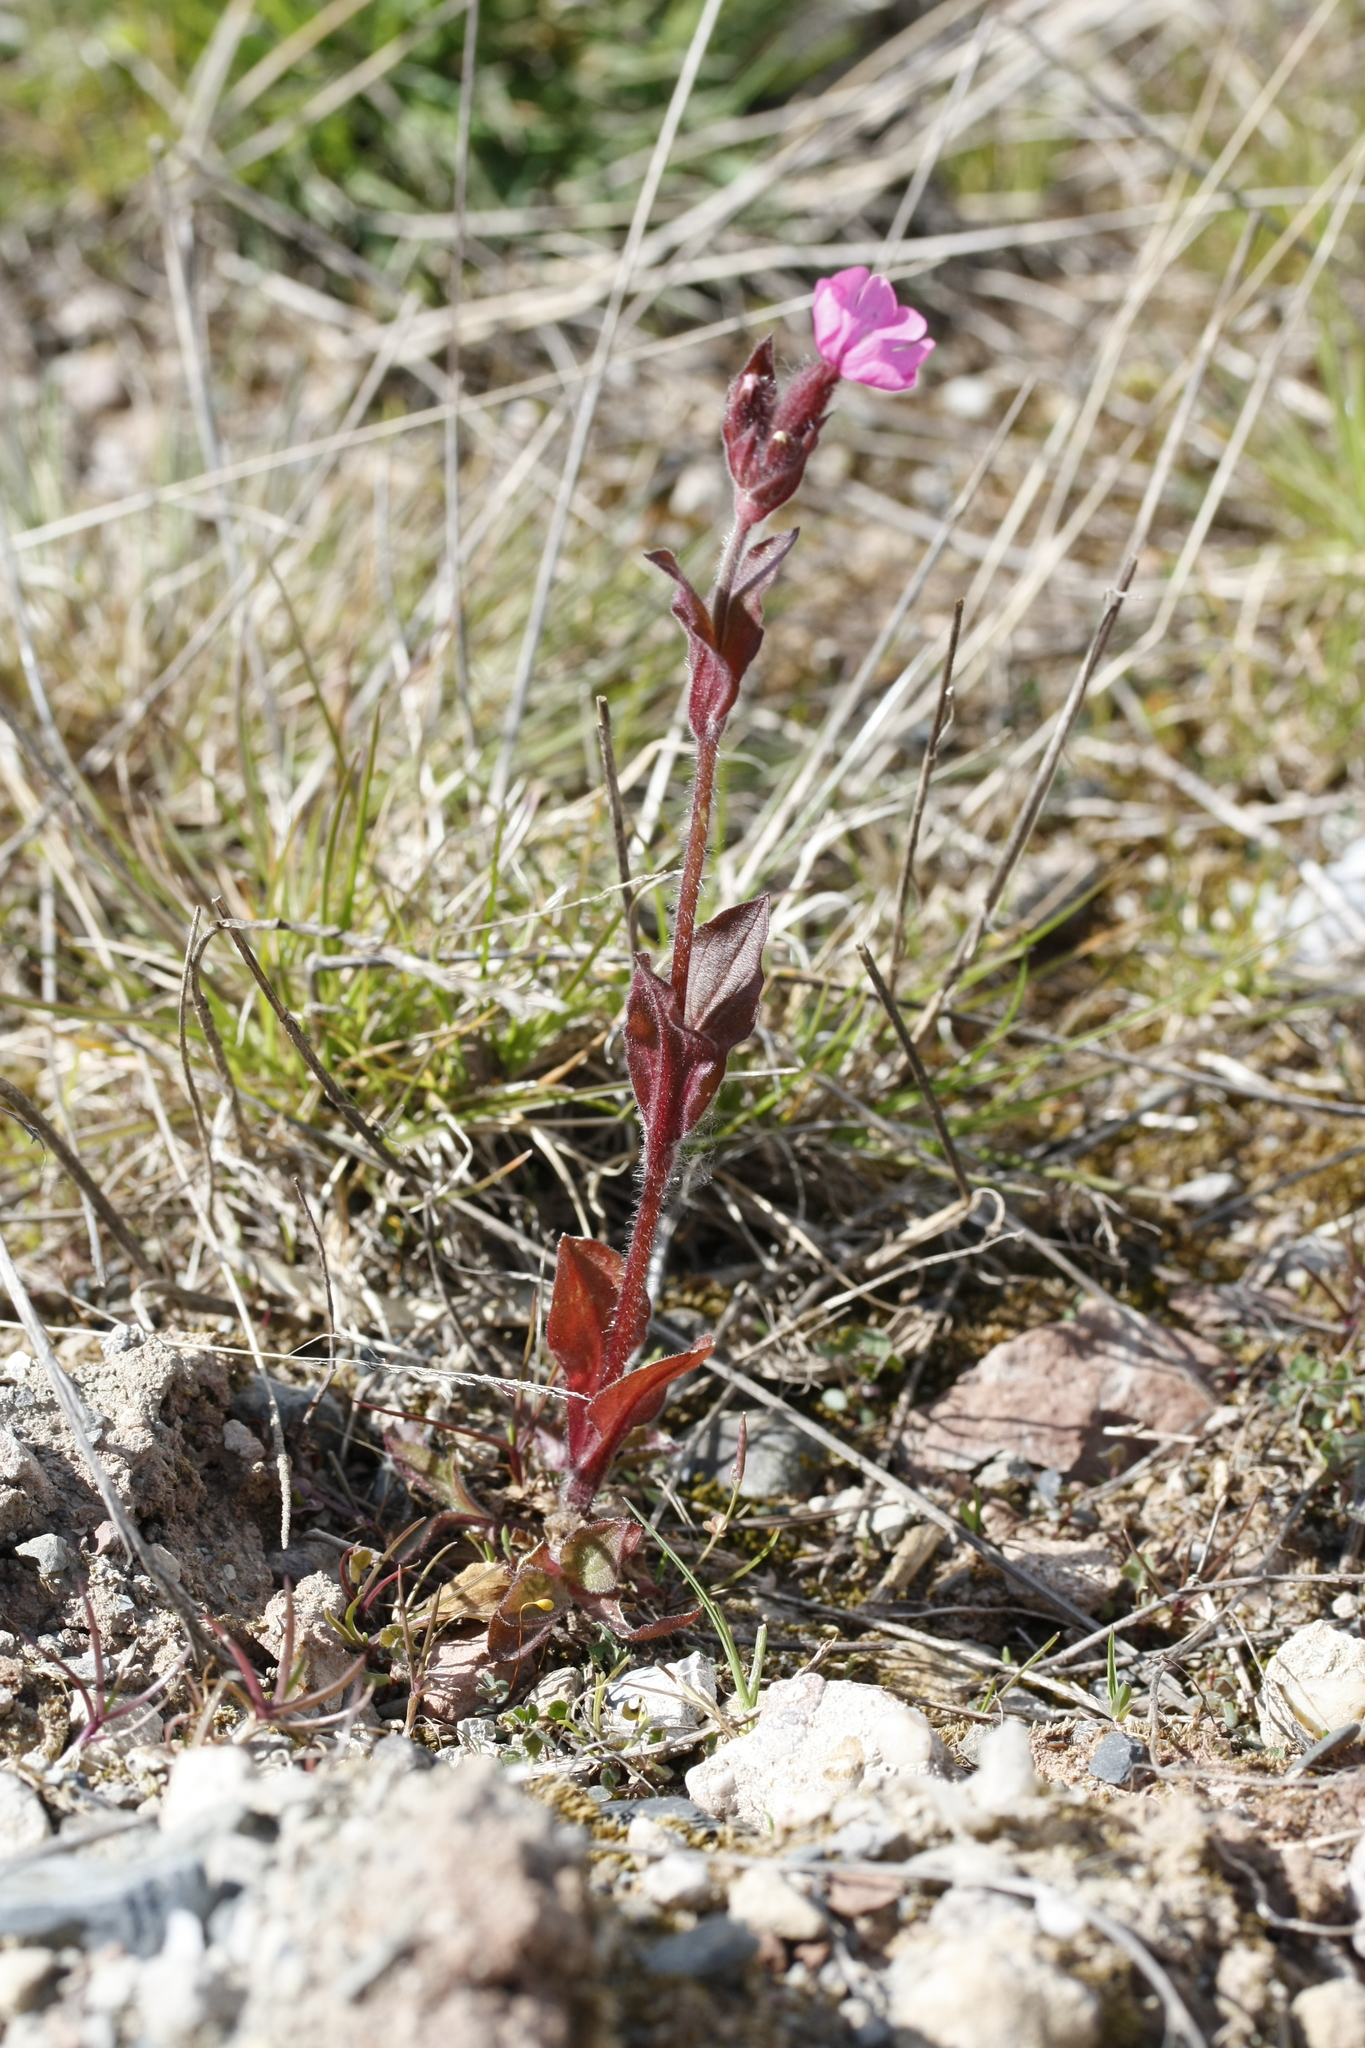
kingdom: Plantae
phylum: Tracheophyta
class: Magnoliopsida
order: Caryophyllales
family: Caryophyllaceae
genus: Silene
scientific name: Silene dioica
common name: Red campion
